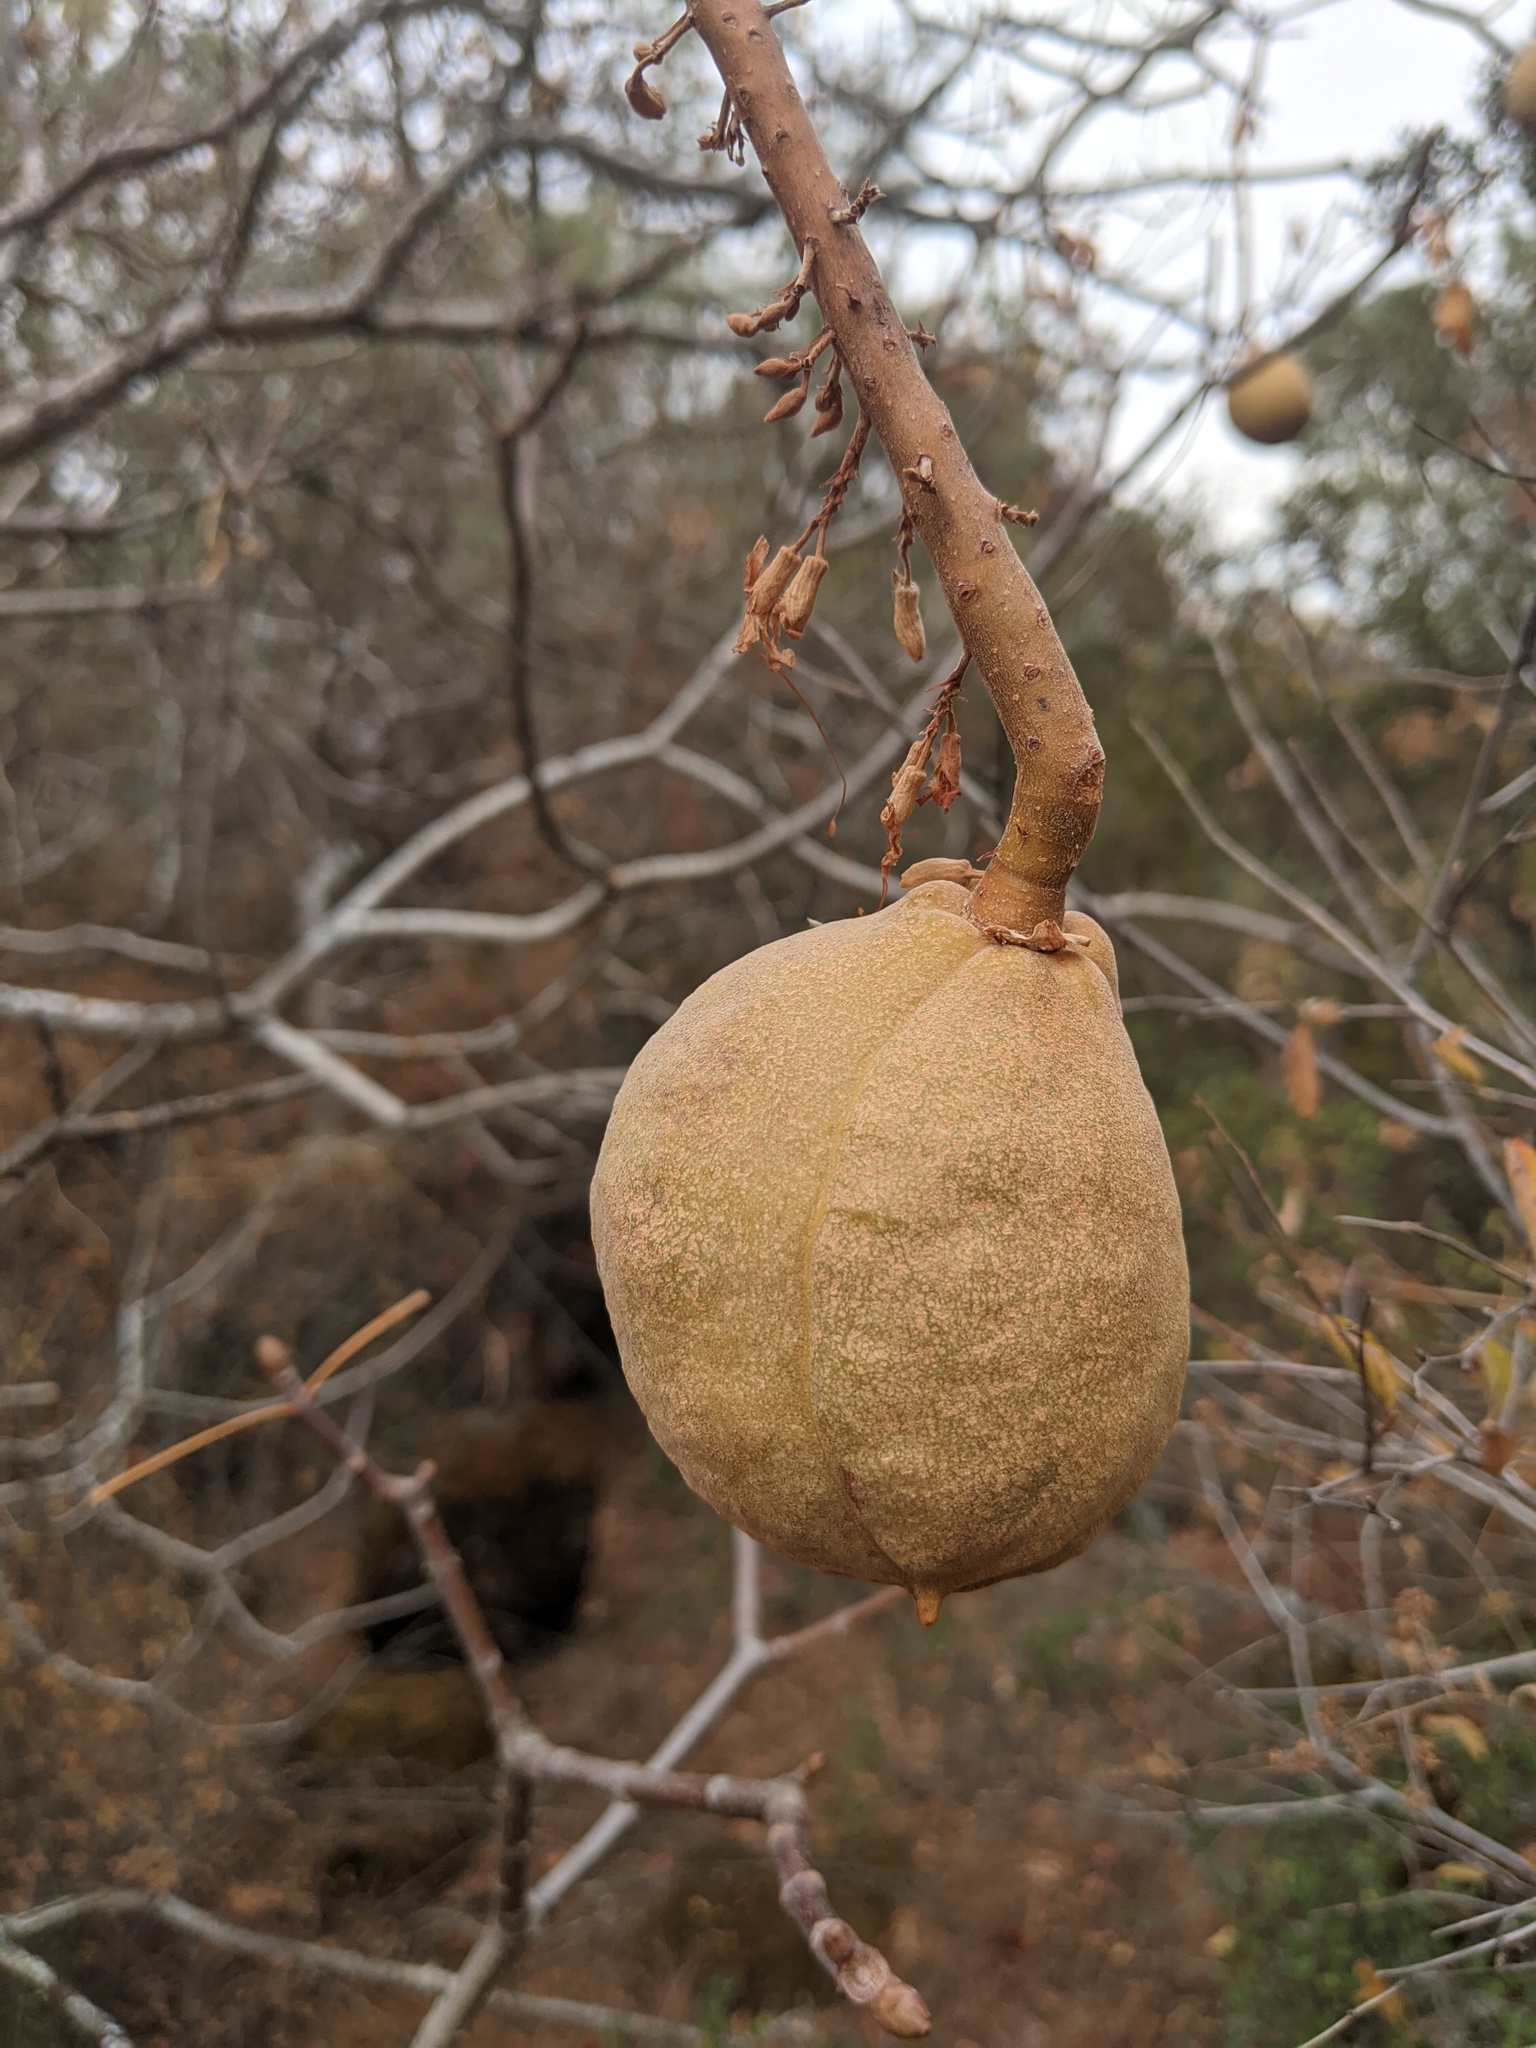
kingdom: Plantae
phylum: Tracheophyta
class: Magnoliopsida
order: Sapindales
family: Sapindaceae
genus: Aesculus
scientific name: Aesculus californica
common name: California buckeye
